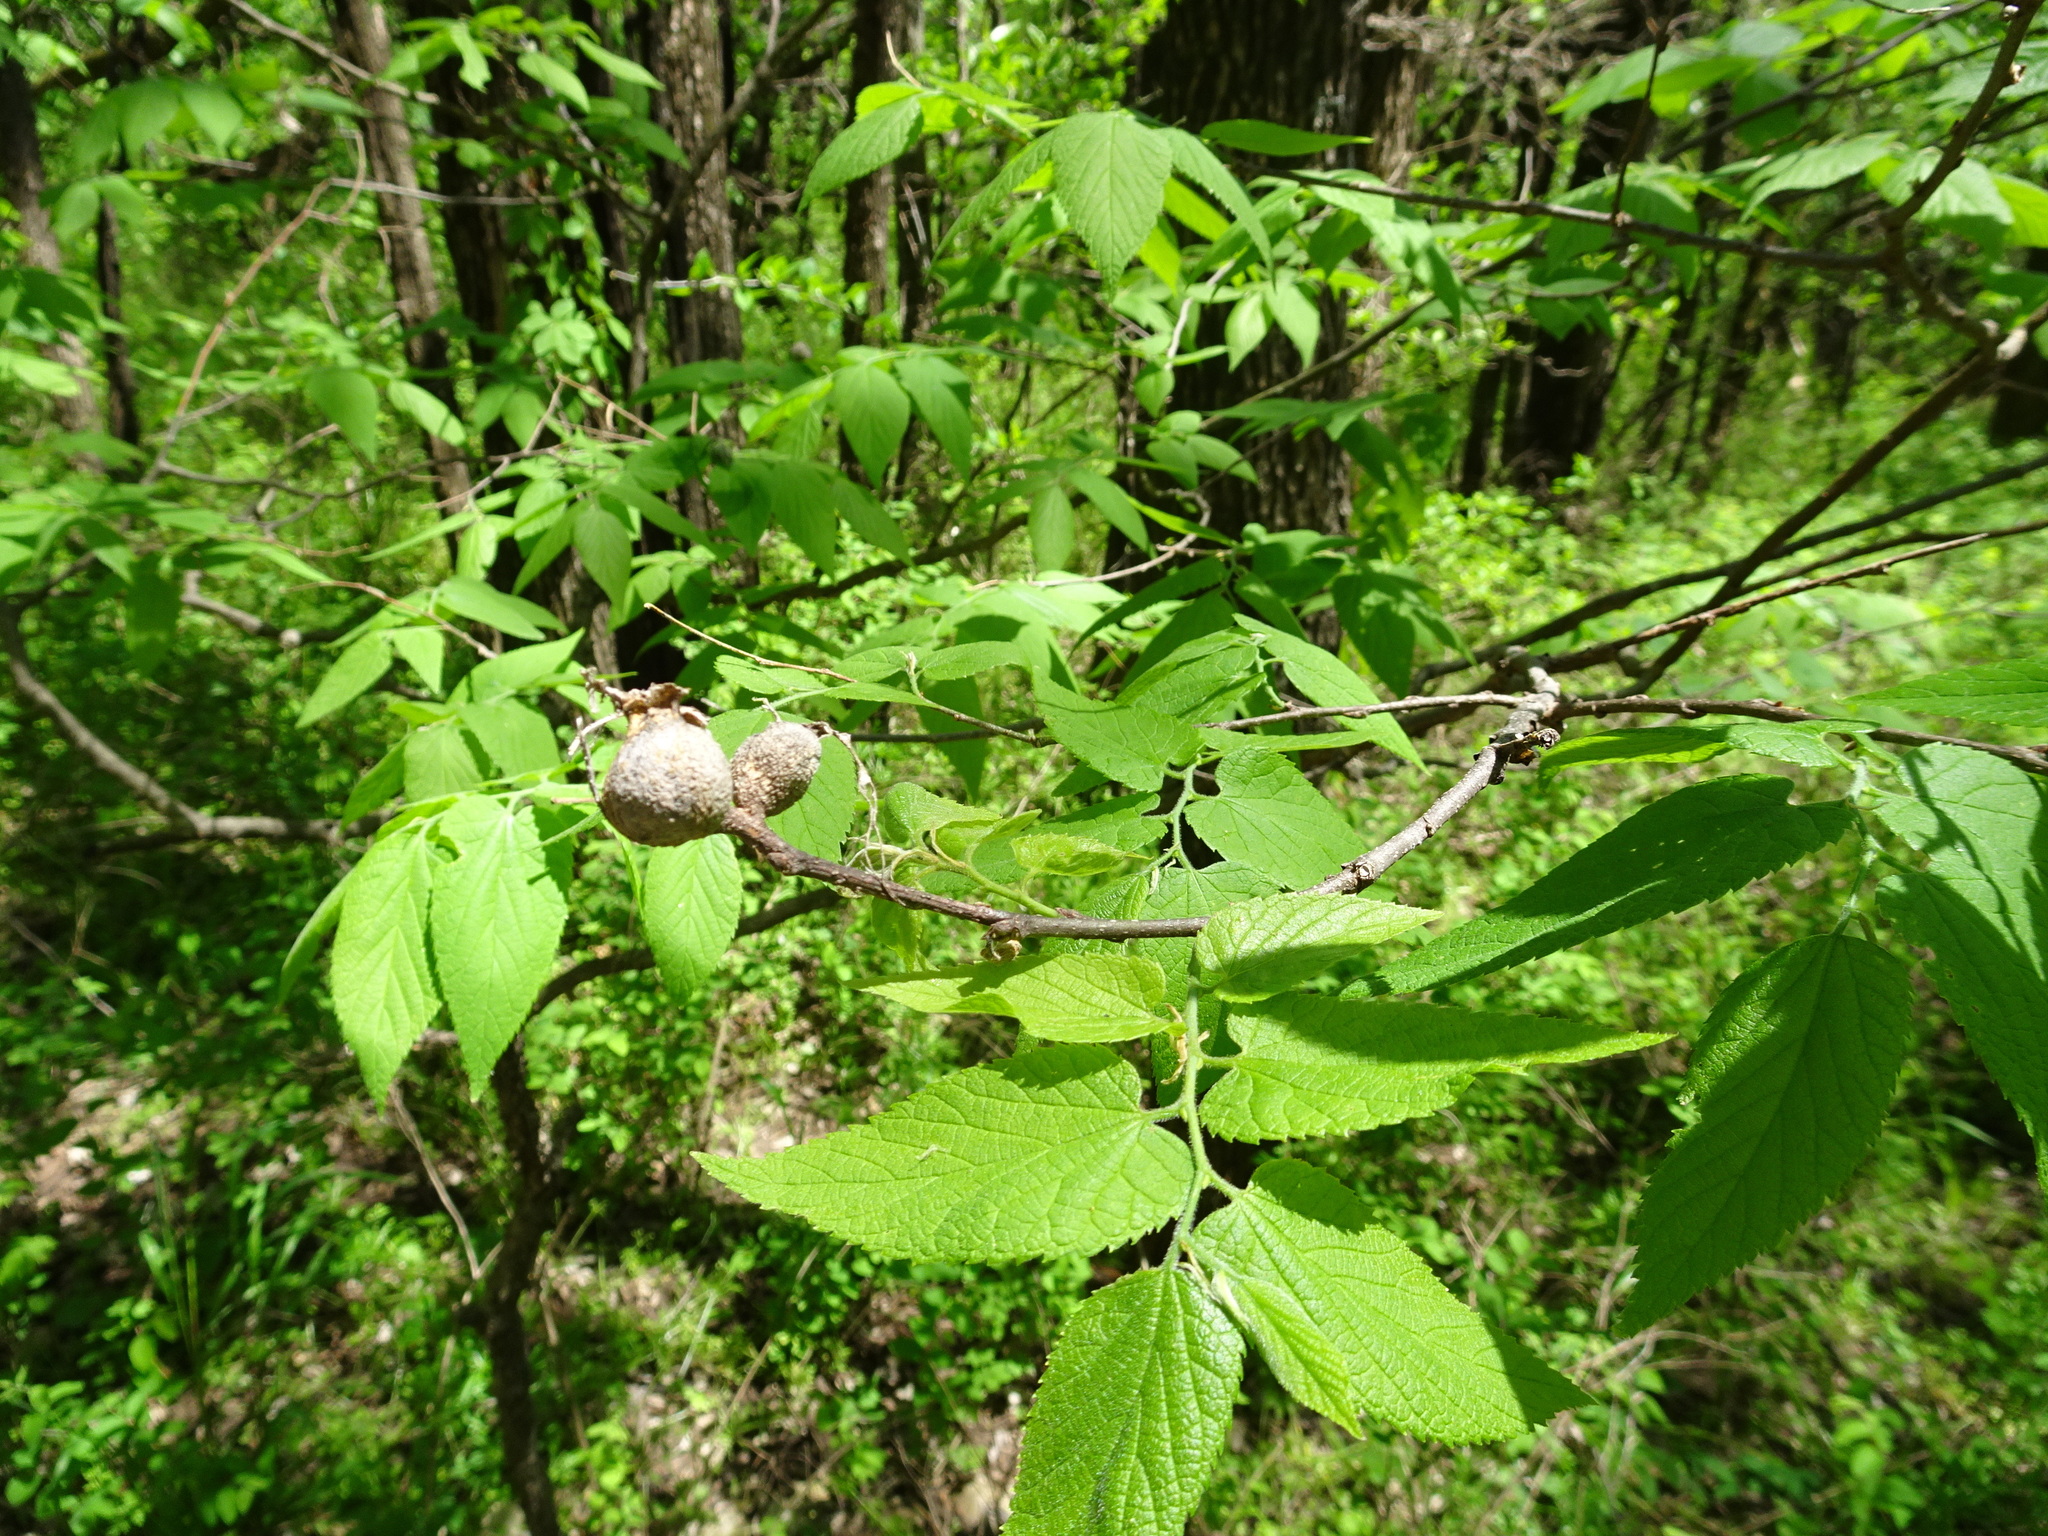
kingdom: Animalia
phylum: Arthropoda
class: Insecta
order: Hemiptera
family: Aphalaridae
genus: Pachypsylla
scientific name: Pachypsylla venusta
